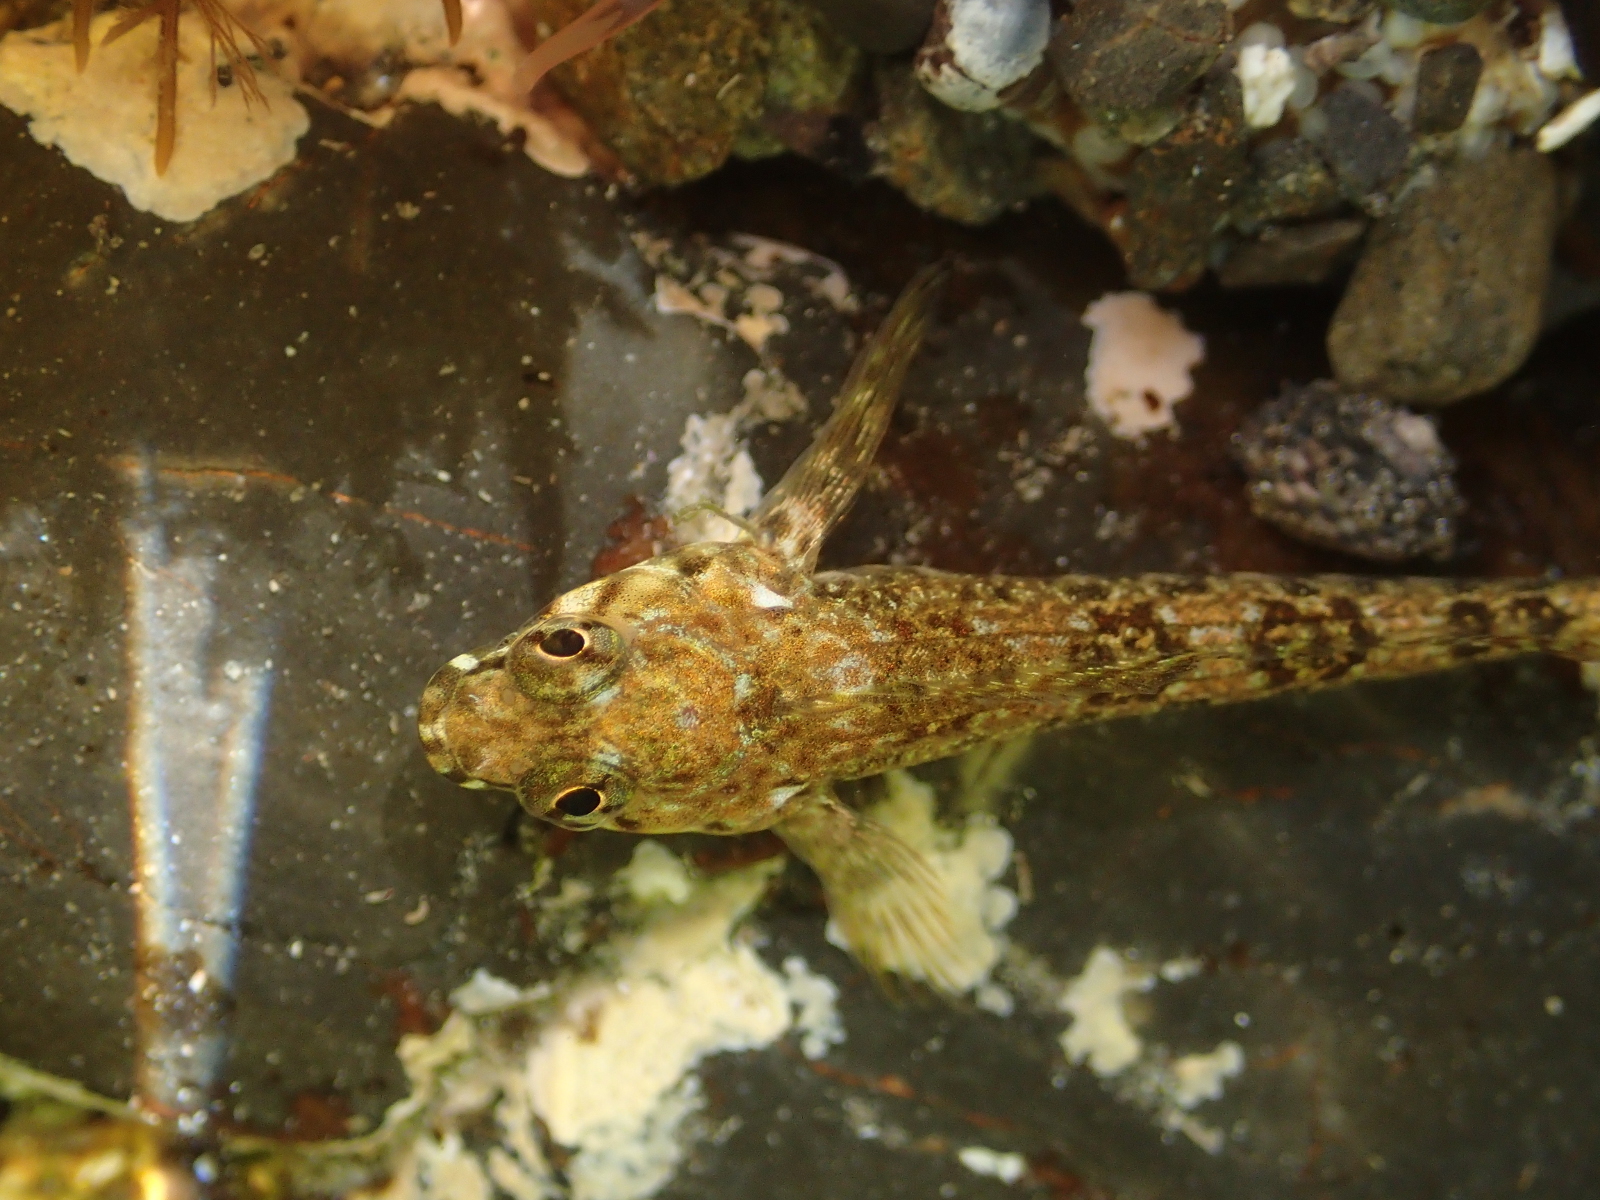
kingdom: Animalia
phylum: Chordata
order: Perciformes
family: Tripterygiidae
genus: Bellapiscis
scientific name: Bellapiscis lesleyae
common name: Mottled twister
